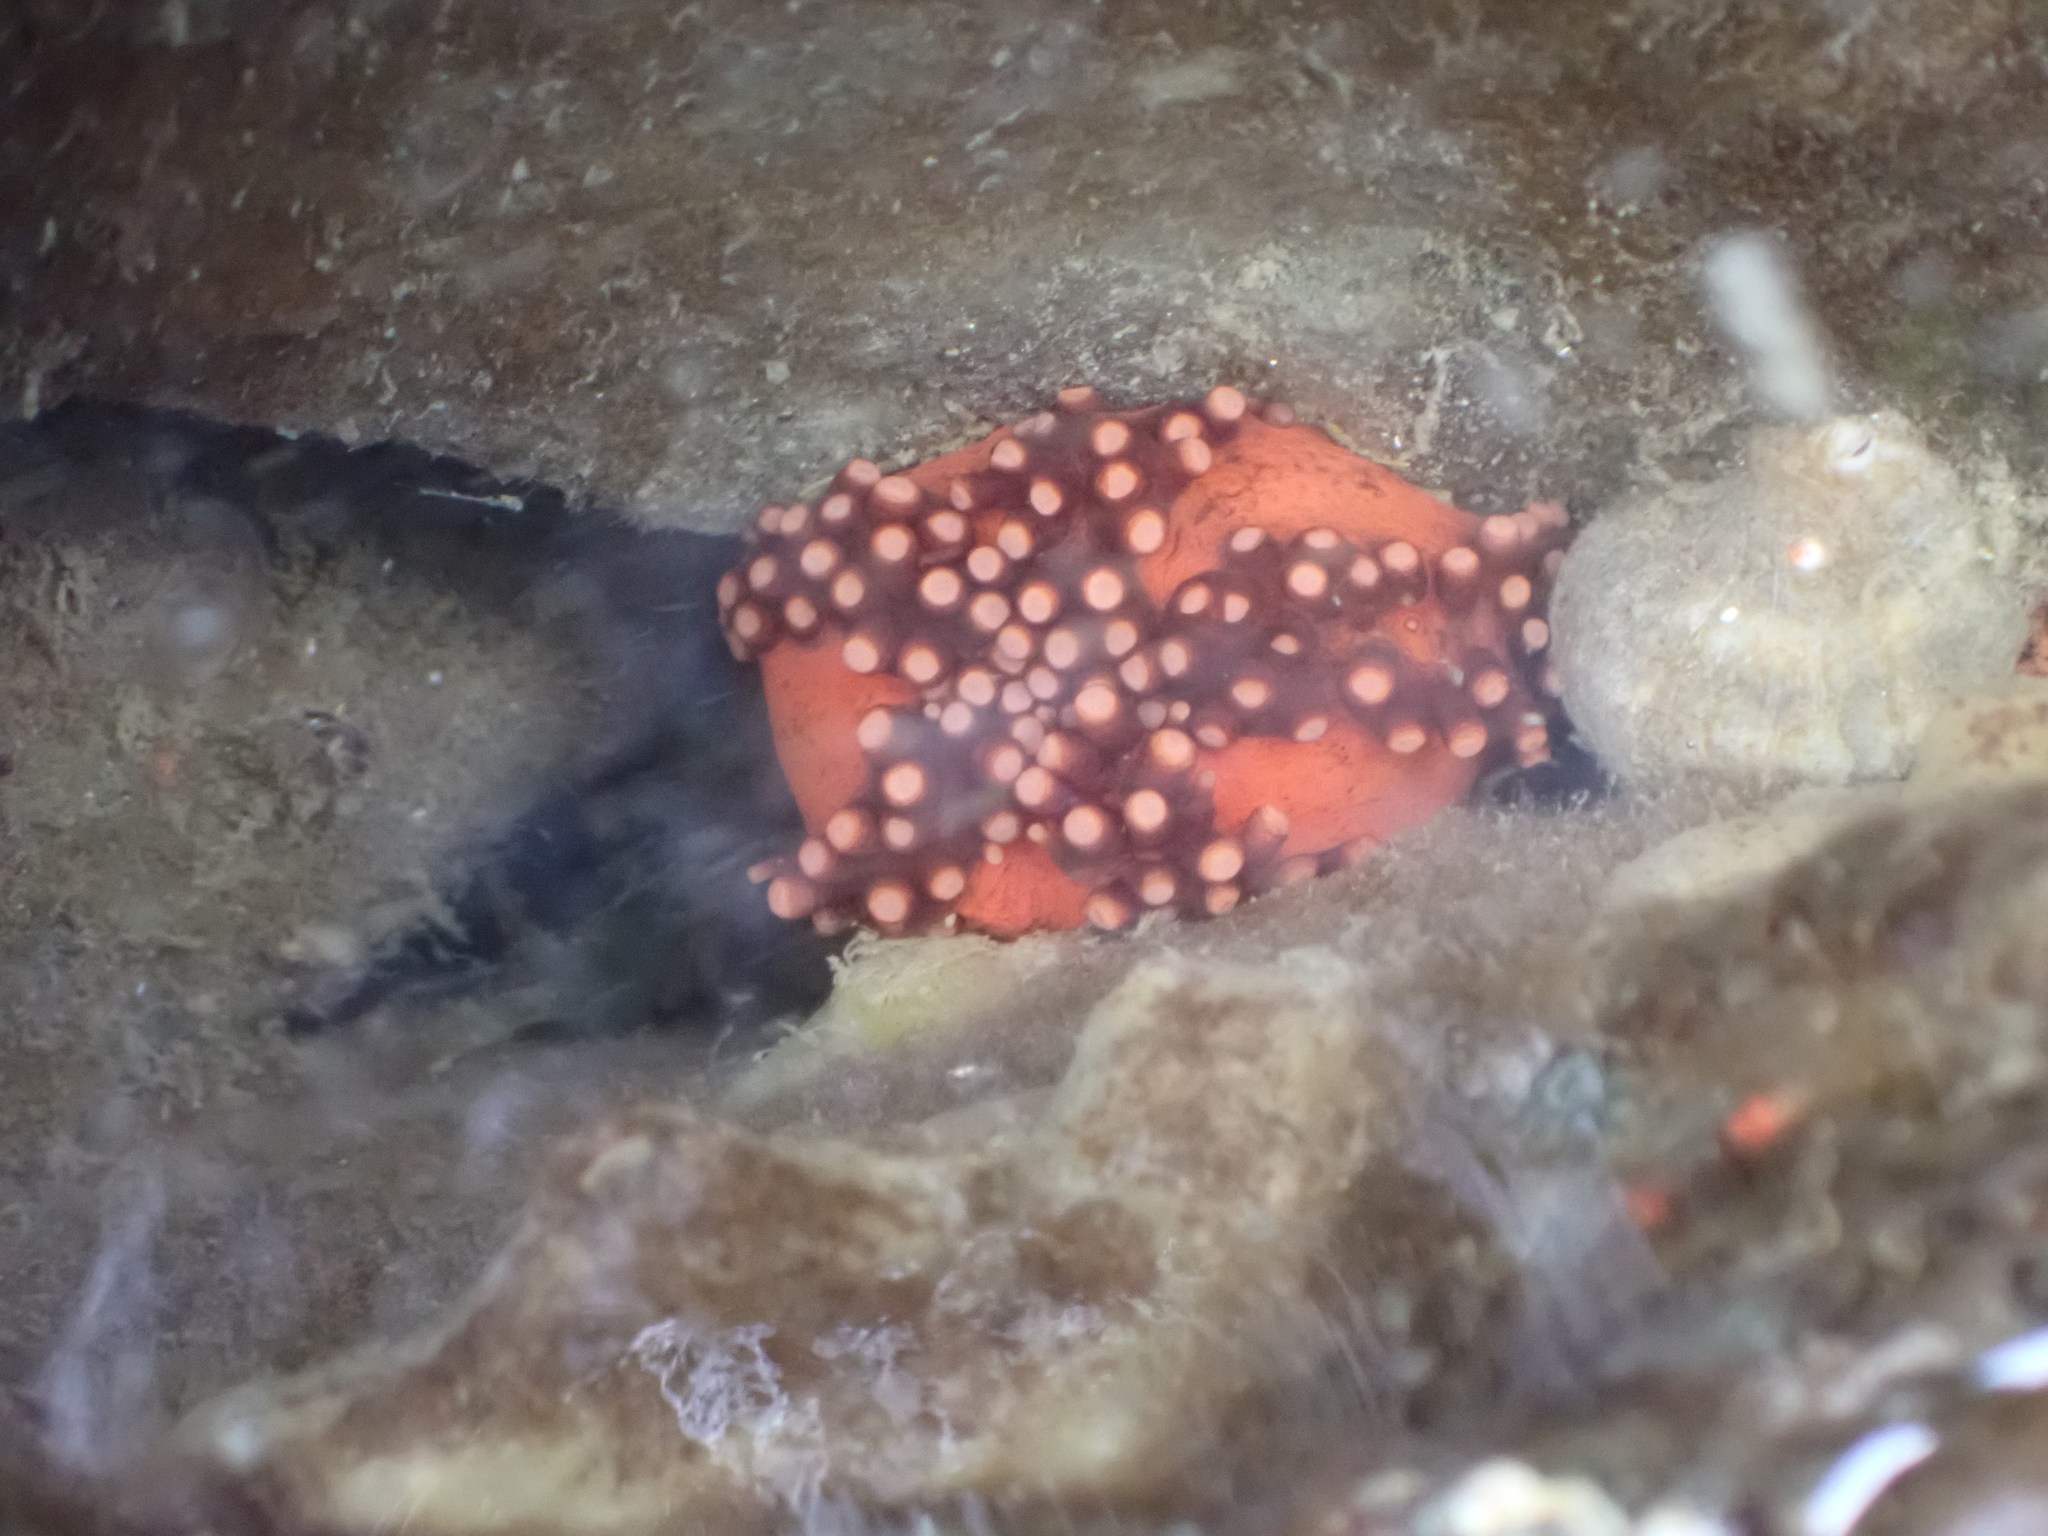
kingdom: Animalia
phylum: Echinodermata
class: Holothuroidea
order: Dendrochirotida
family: Cucumariidae
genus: Cucumaria
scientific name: Cucumaria miniata
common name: Orange sea cucumber
